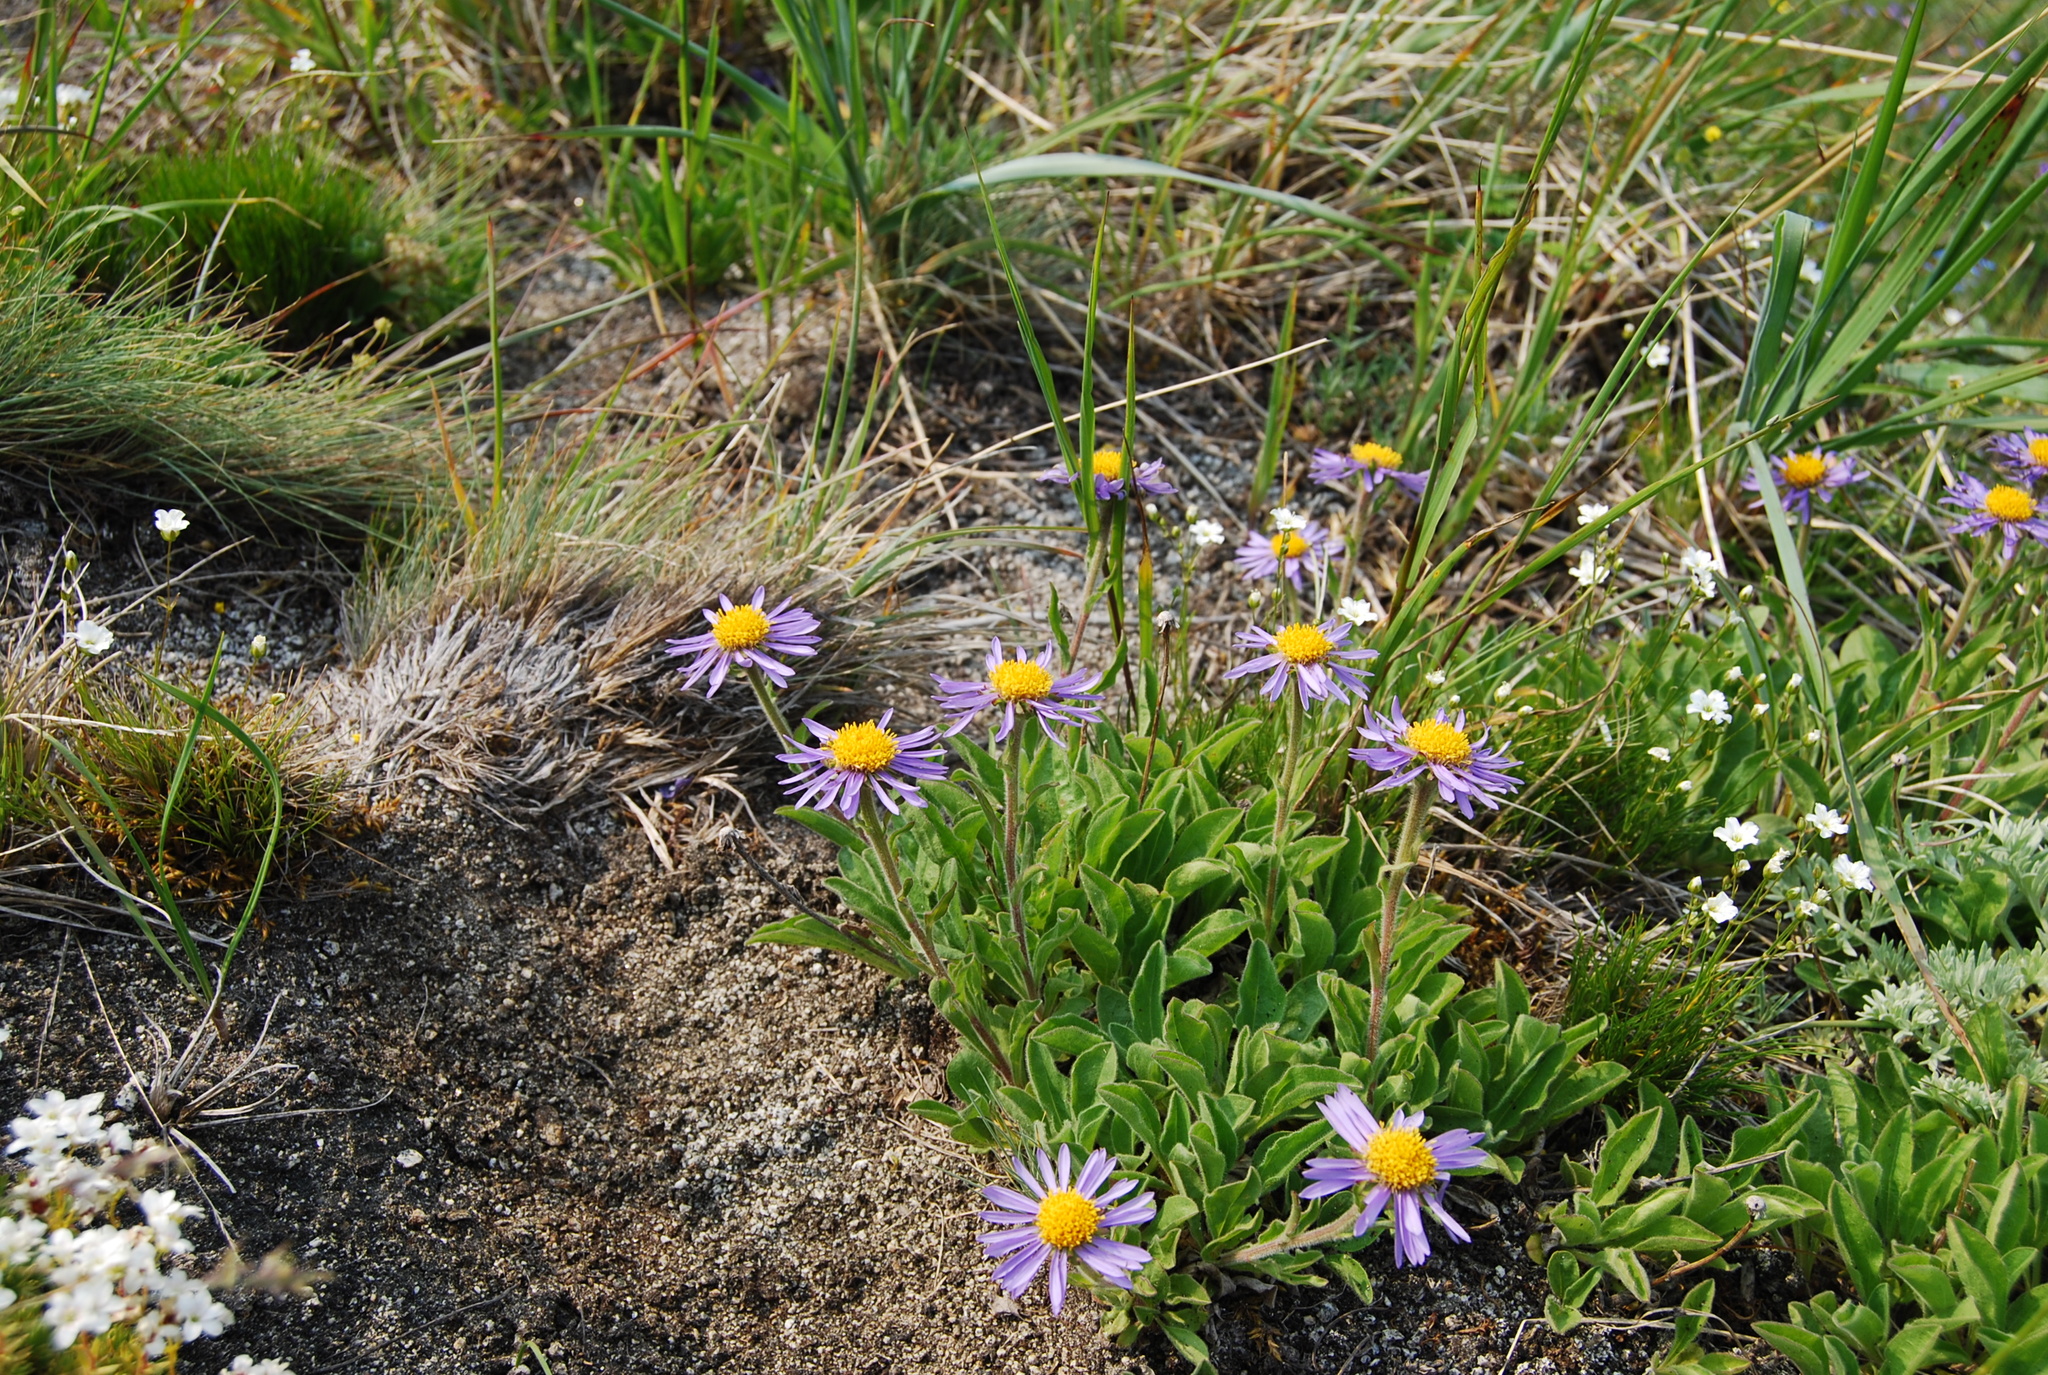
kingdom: Plantae
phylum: Tracheophyta
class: Magnoliopsida
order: Asterales
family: Asteraceae
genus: Aster
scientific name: Aster alpinus
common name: Alpine aster
